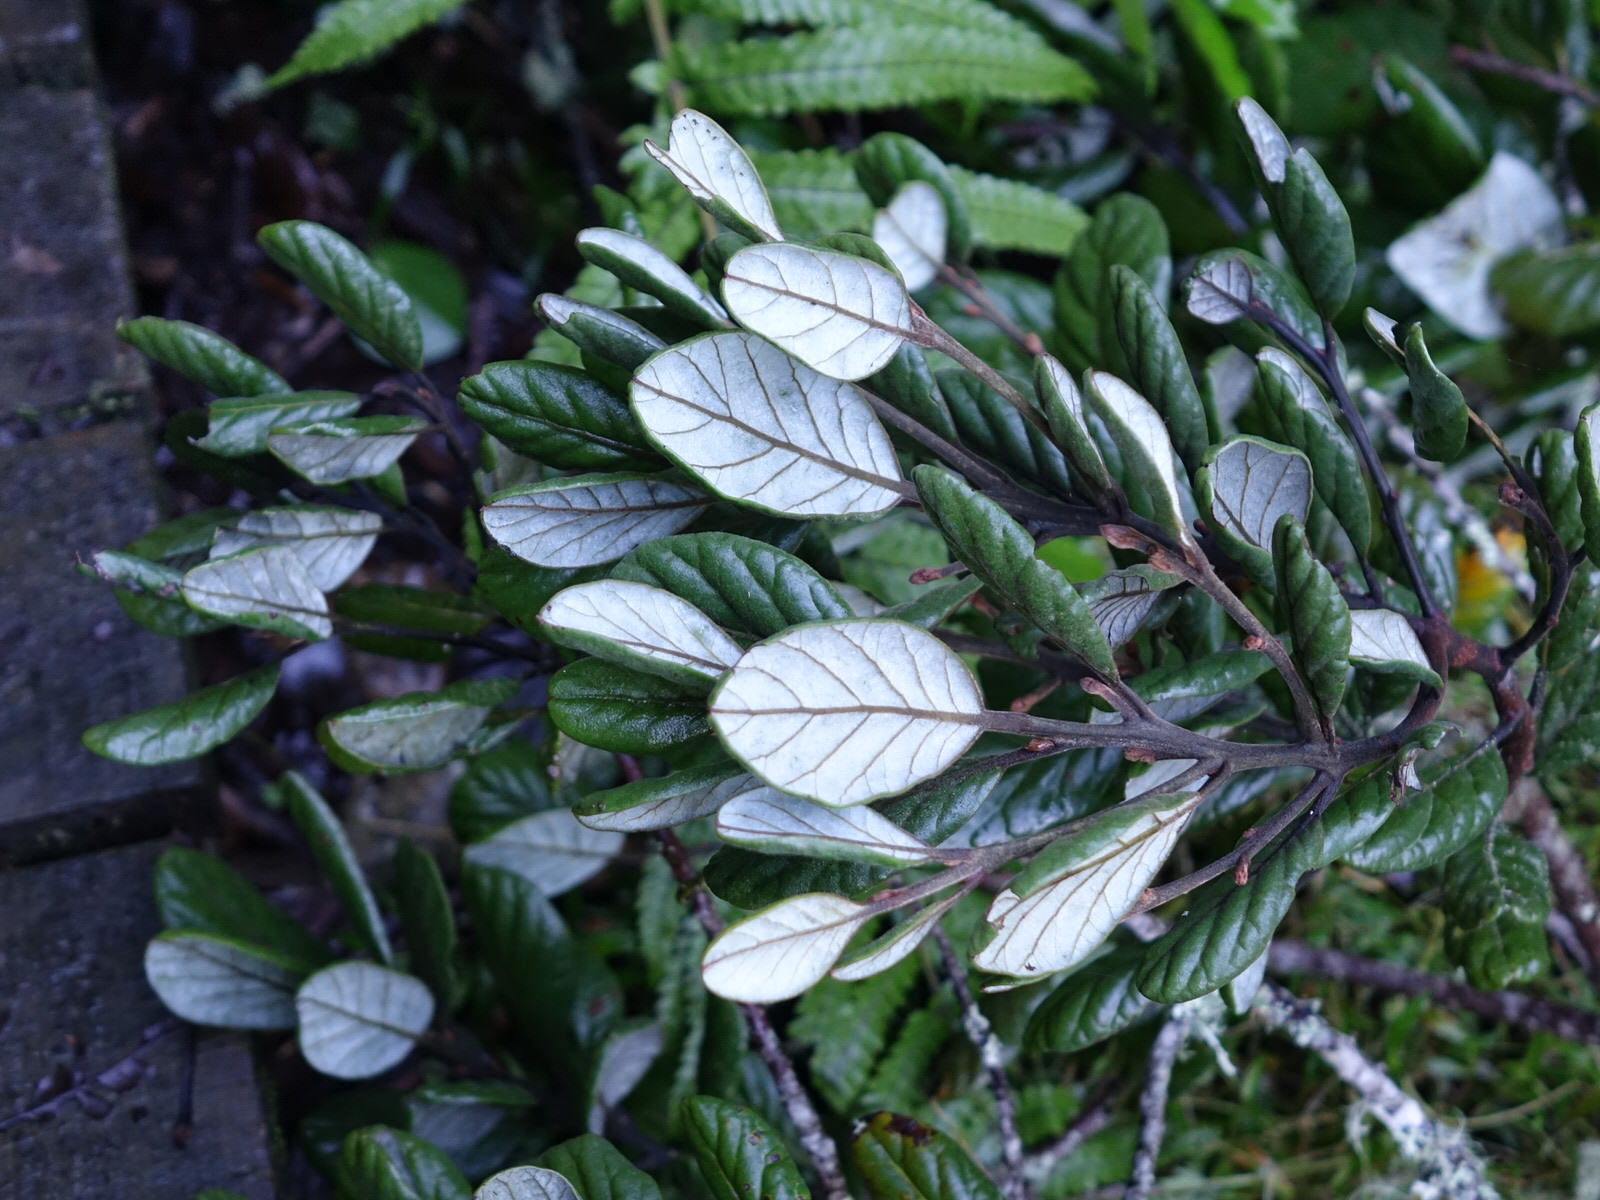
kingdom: Plantae
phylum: Tracheophyta
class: Magnoliopsida
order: Laurales
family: Lauraceae
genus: Beilschmiedia
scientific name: Beilschmiedia tarairi
